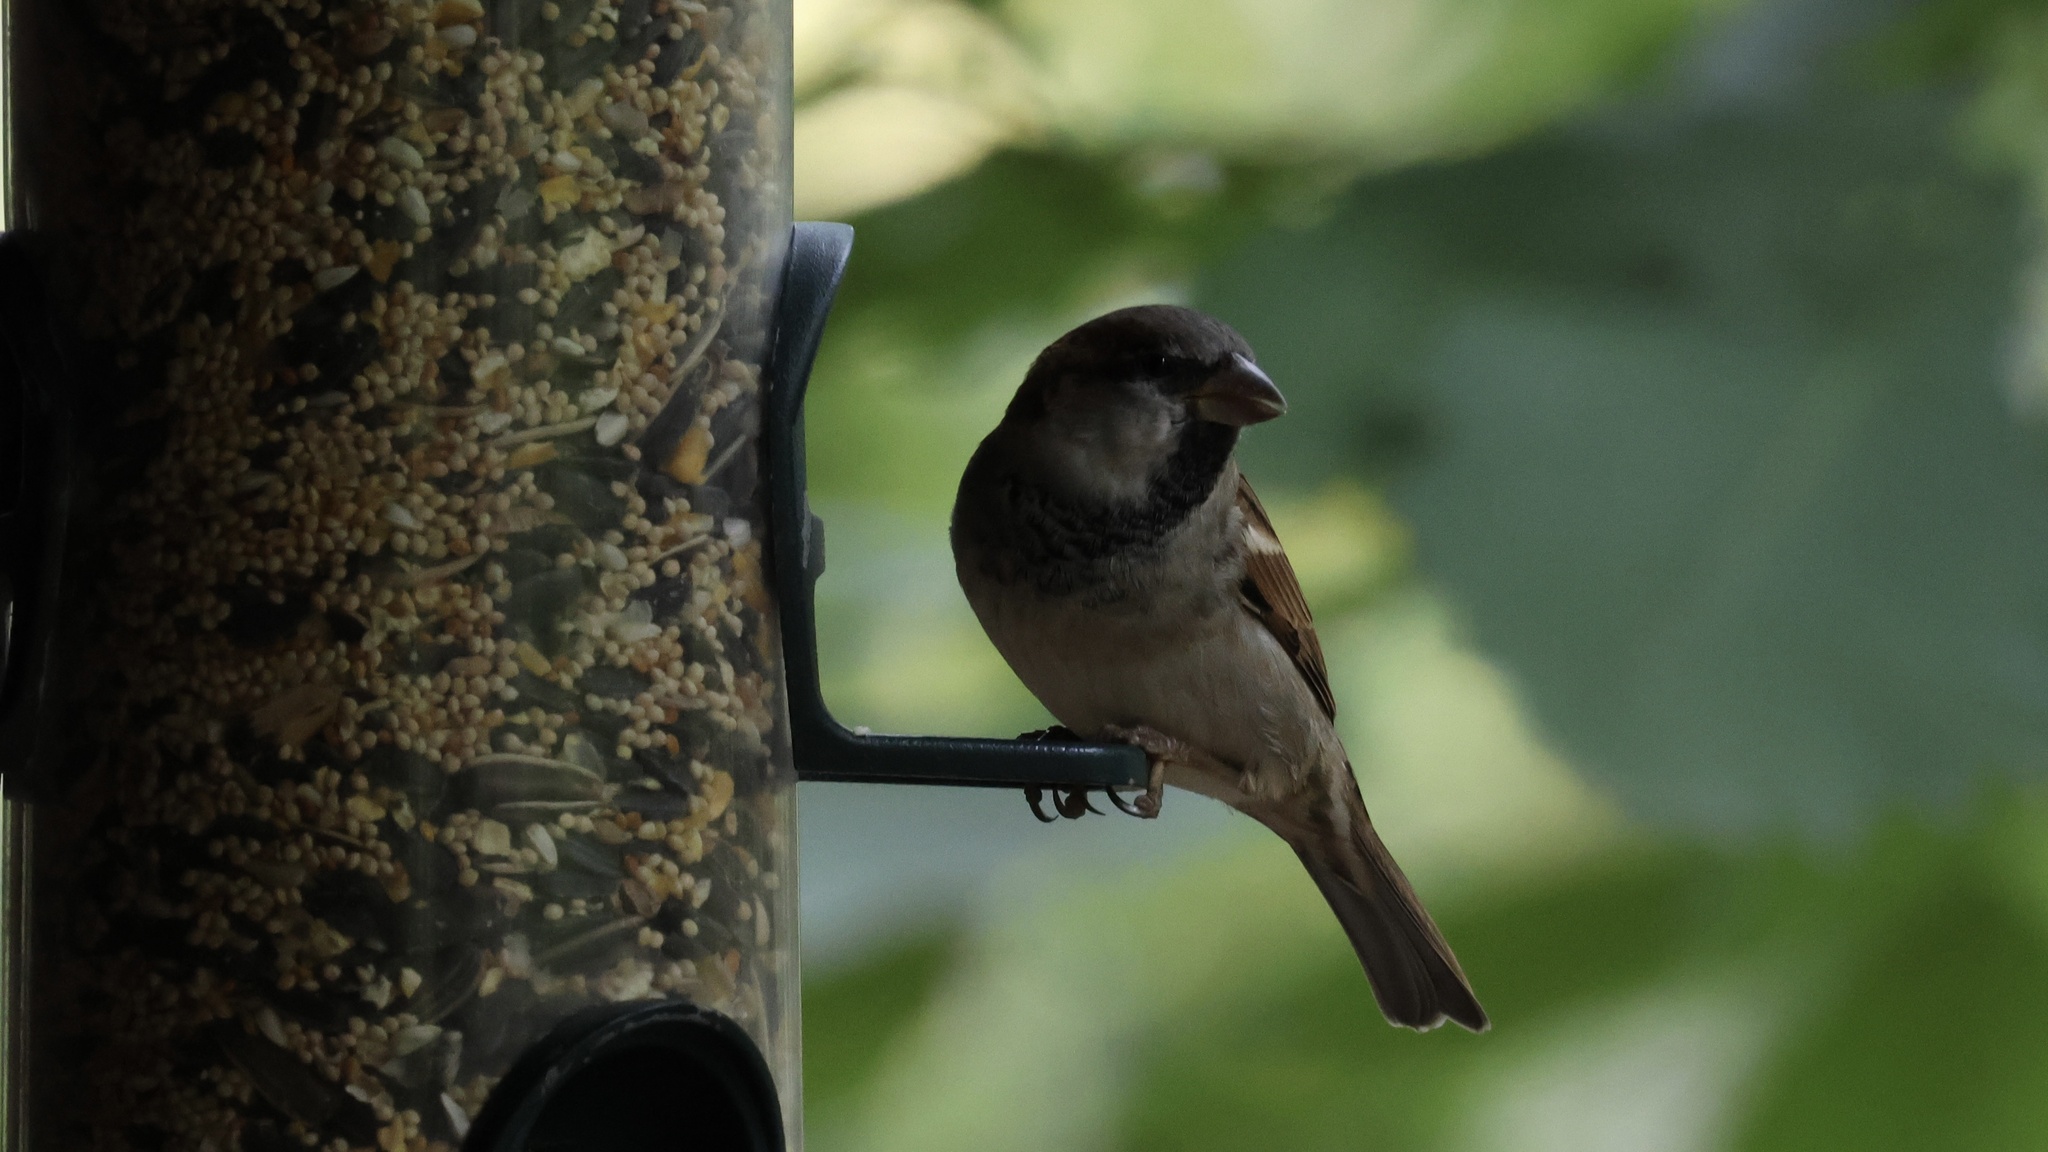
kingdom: Animalia
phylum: Chordata
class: Aves
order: Passeriformes
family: Passeridae
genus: Passer
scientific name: Passer domesticus
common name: House sparrow
